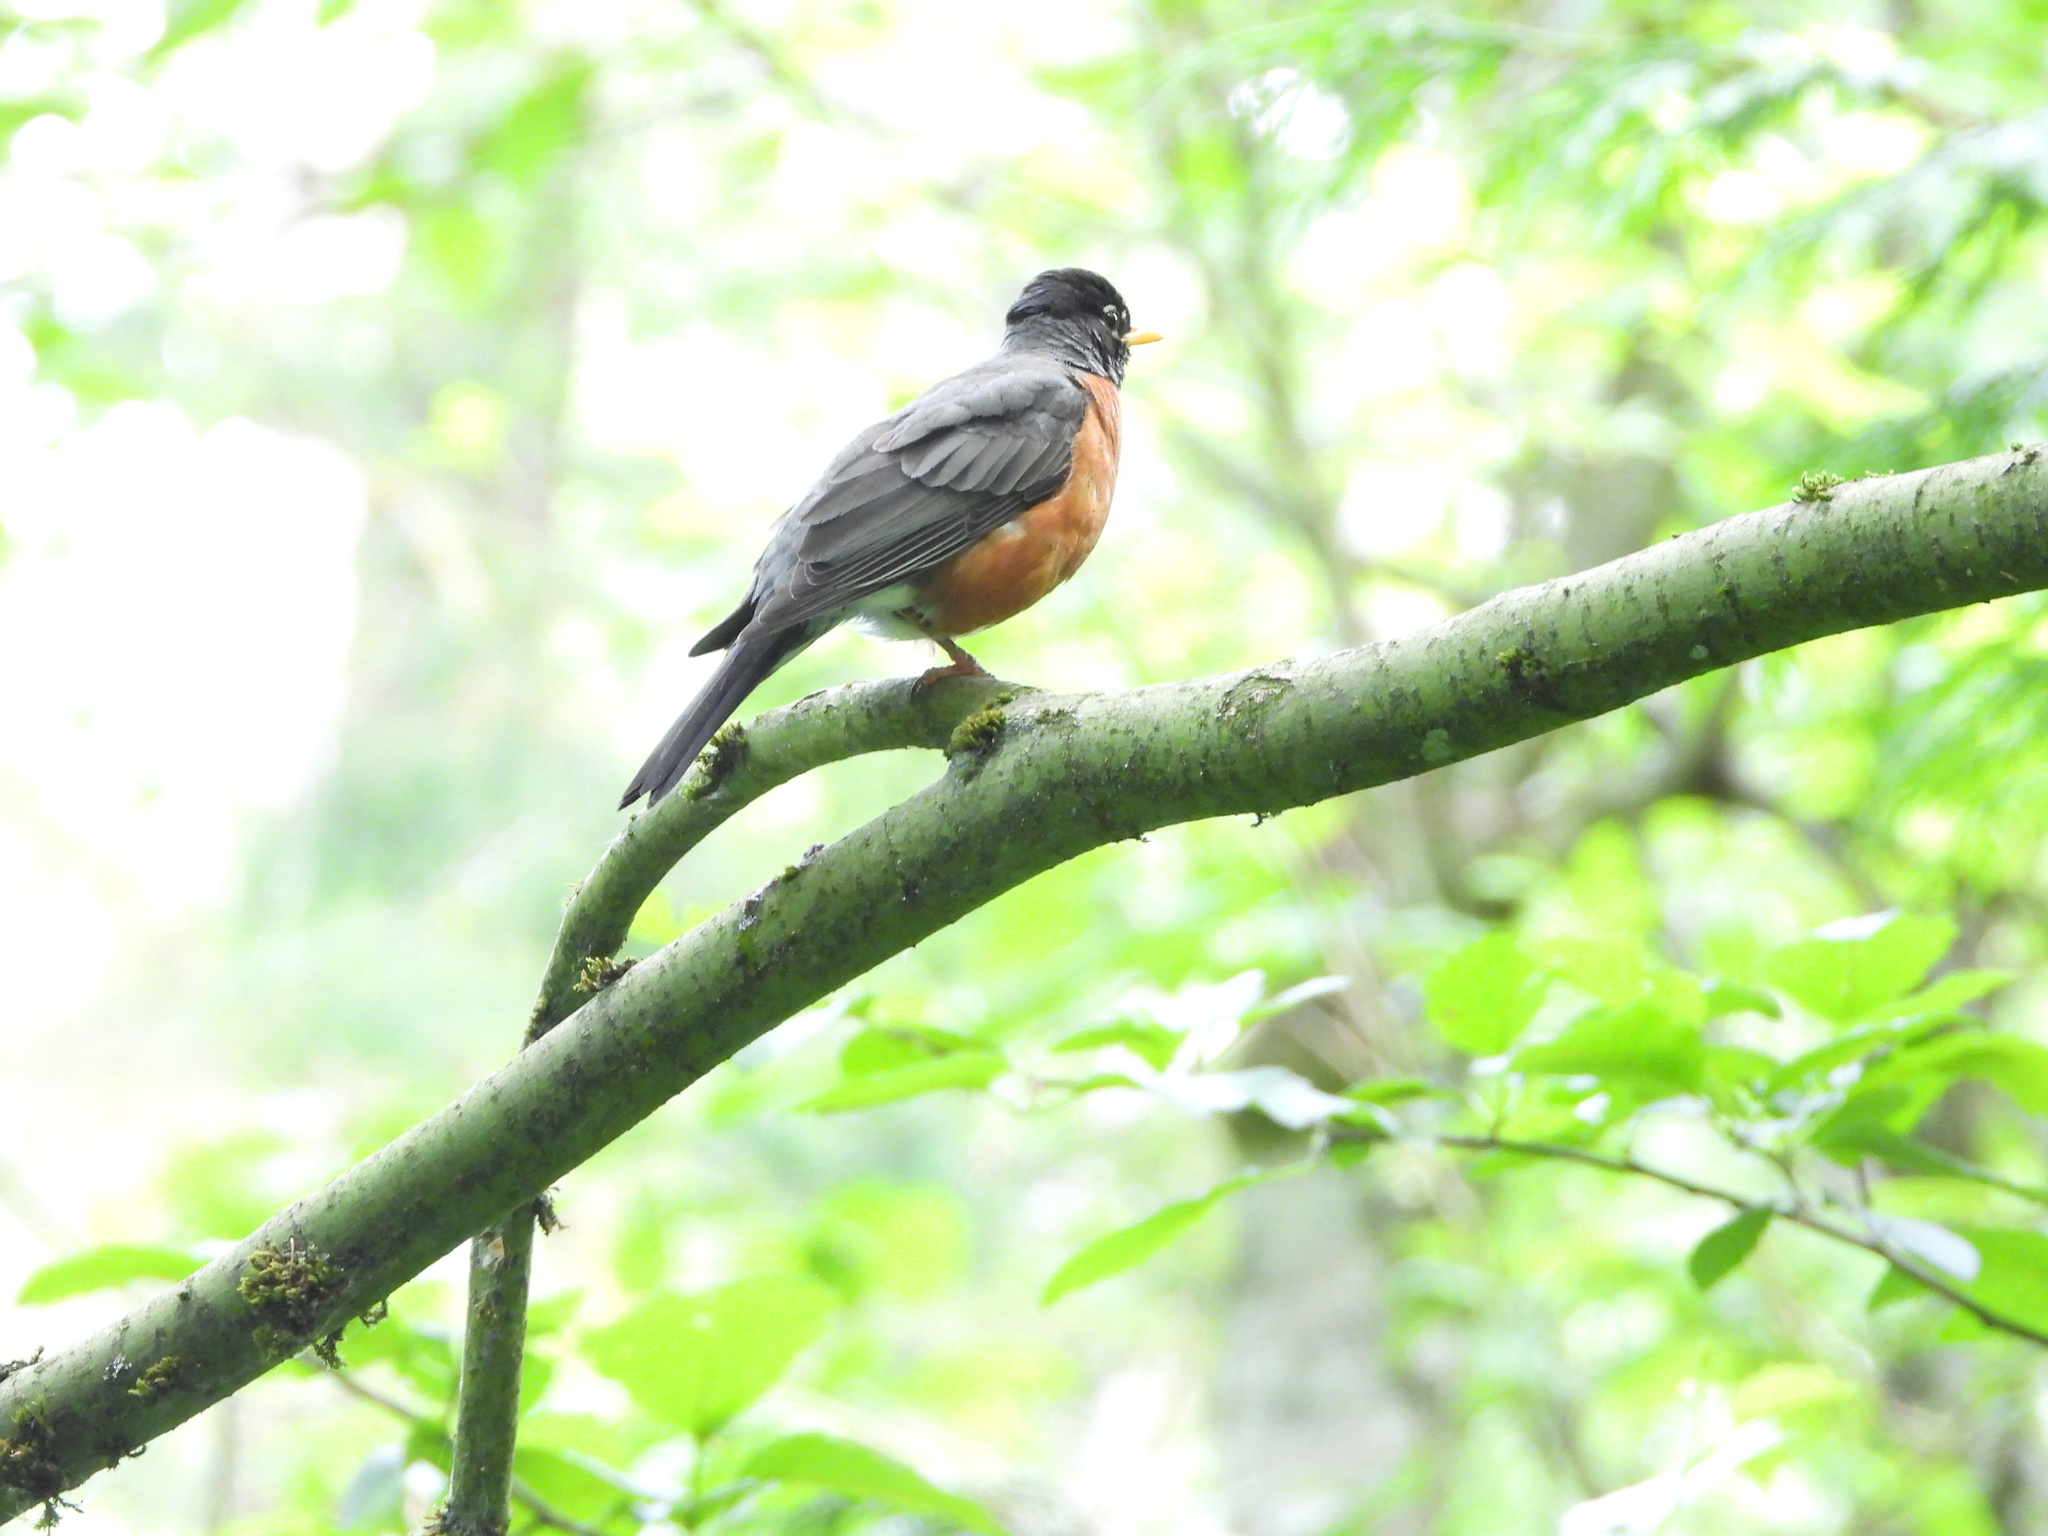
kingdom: Animalia
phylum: Chordata
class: Aves
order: Passeriformes
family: Turdidae
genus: Turdus
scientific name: Turdus migratorius
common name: American robin
